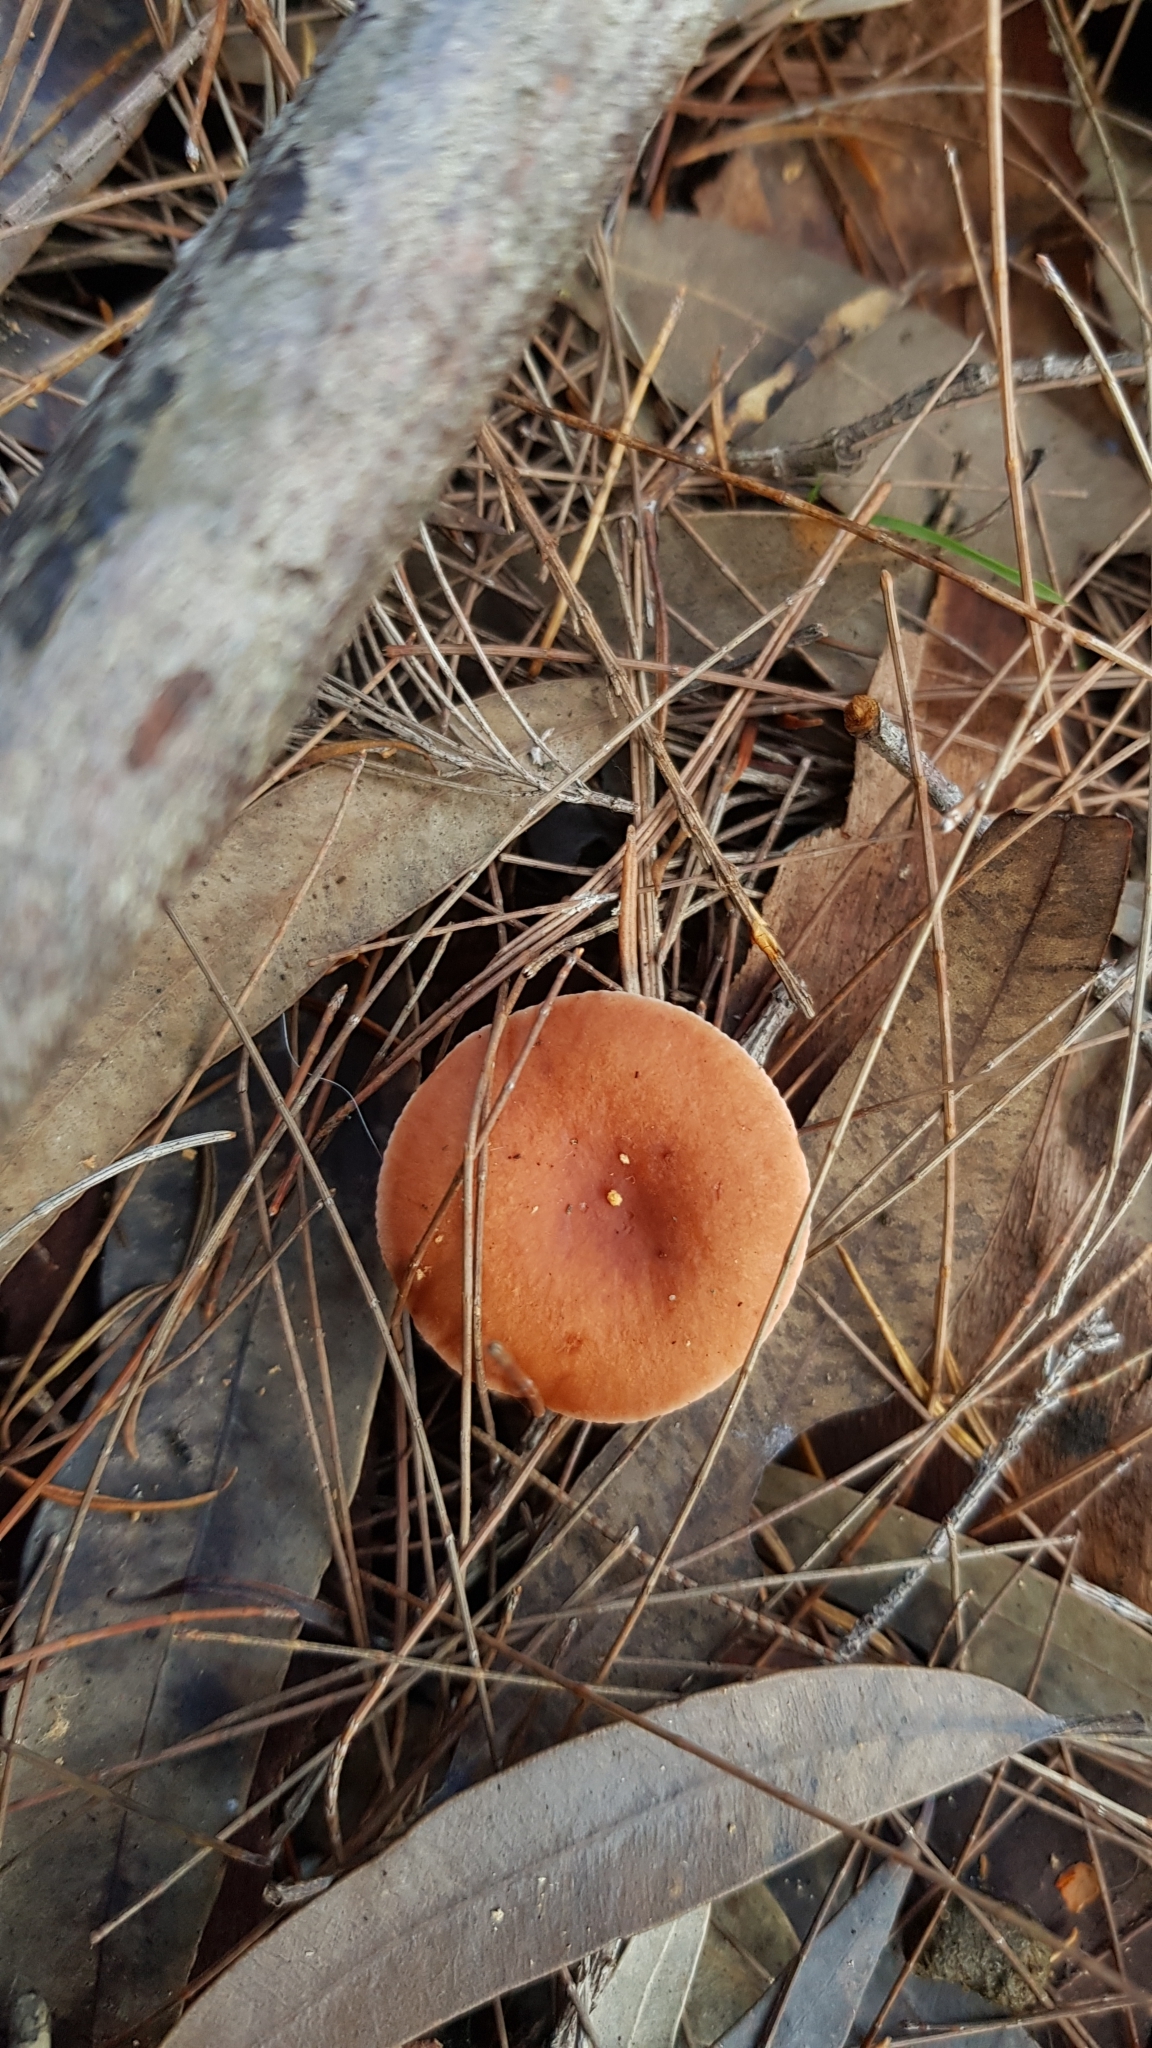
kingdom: Fungi
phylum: Basidiomycota
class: Agaricomycetes
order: Russulales
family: Russulaceae
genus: Lactarius
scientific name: Lactarius eucalypti
